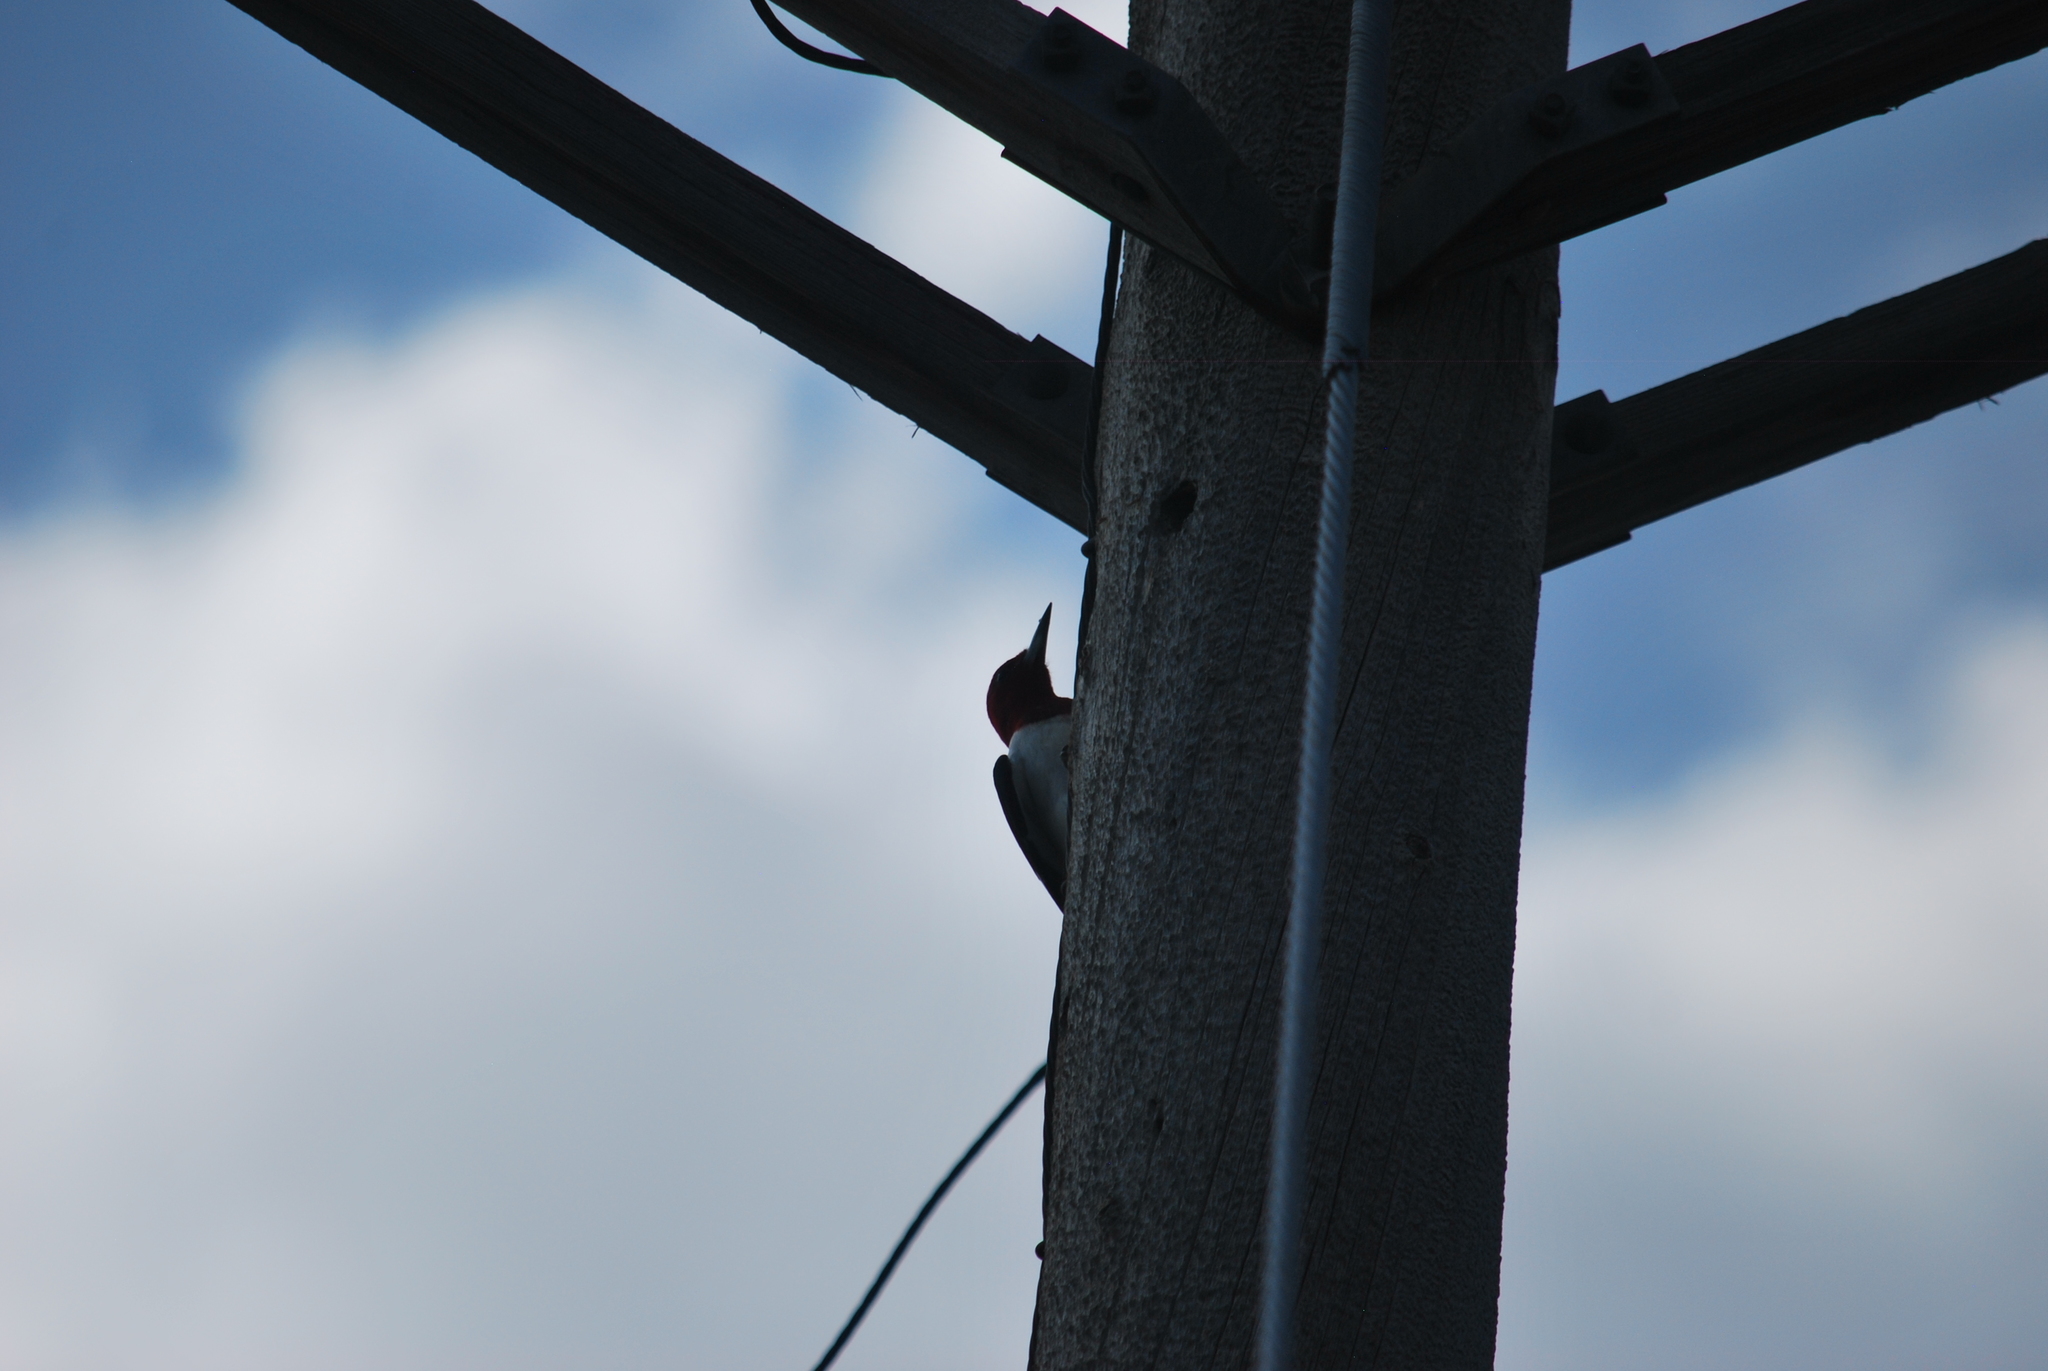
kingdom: Animalia
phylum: Chordata
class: Aves
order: Piciformes
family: Picidae
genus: Melanerpes
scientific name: Melanerpes erythrocephalus
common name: Red-headed woodpecker
